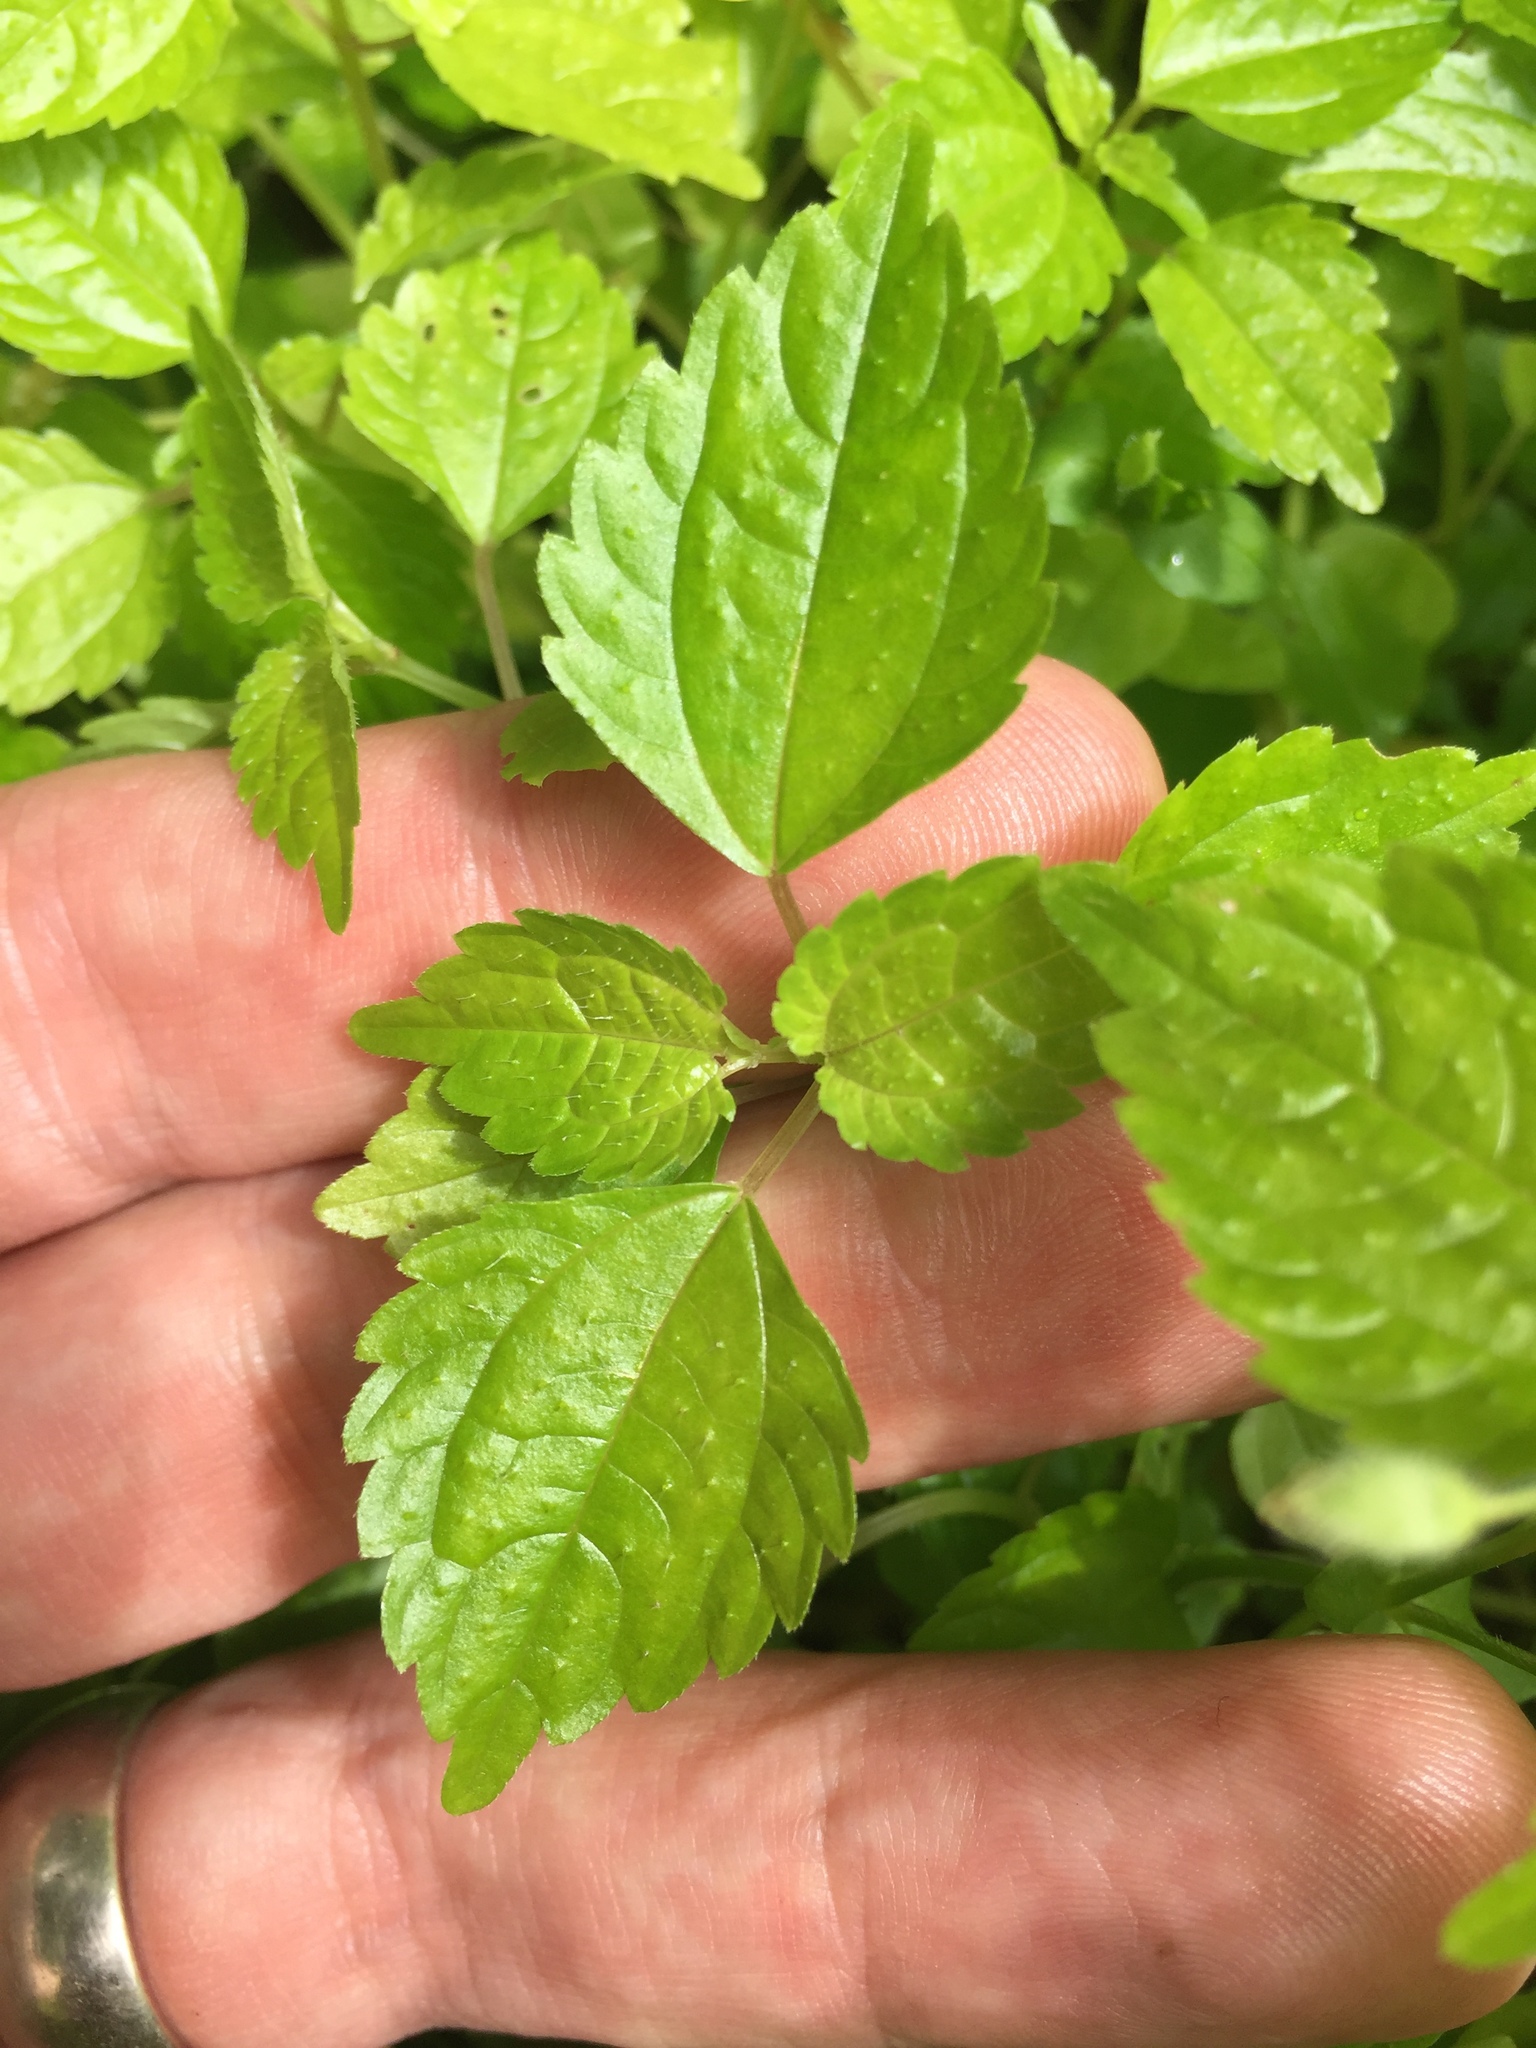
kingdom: Plantae
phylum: Tracheophyta
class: Magnoliopsida
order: Rosales
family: Urticaceae
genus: Pilea
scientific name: Pilea pumila
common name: Clearweed
